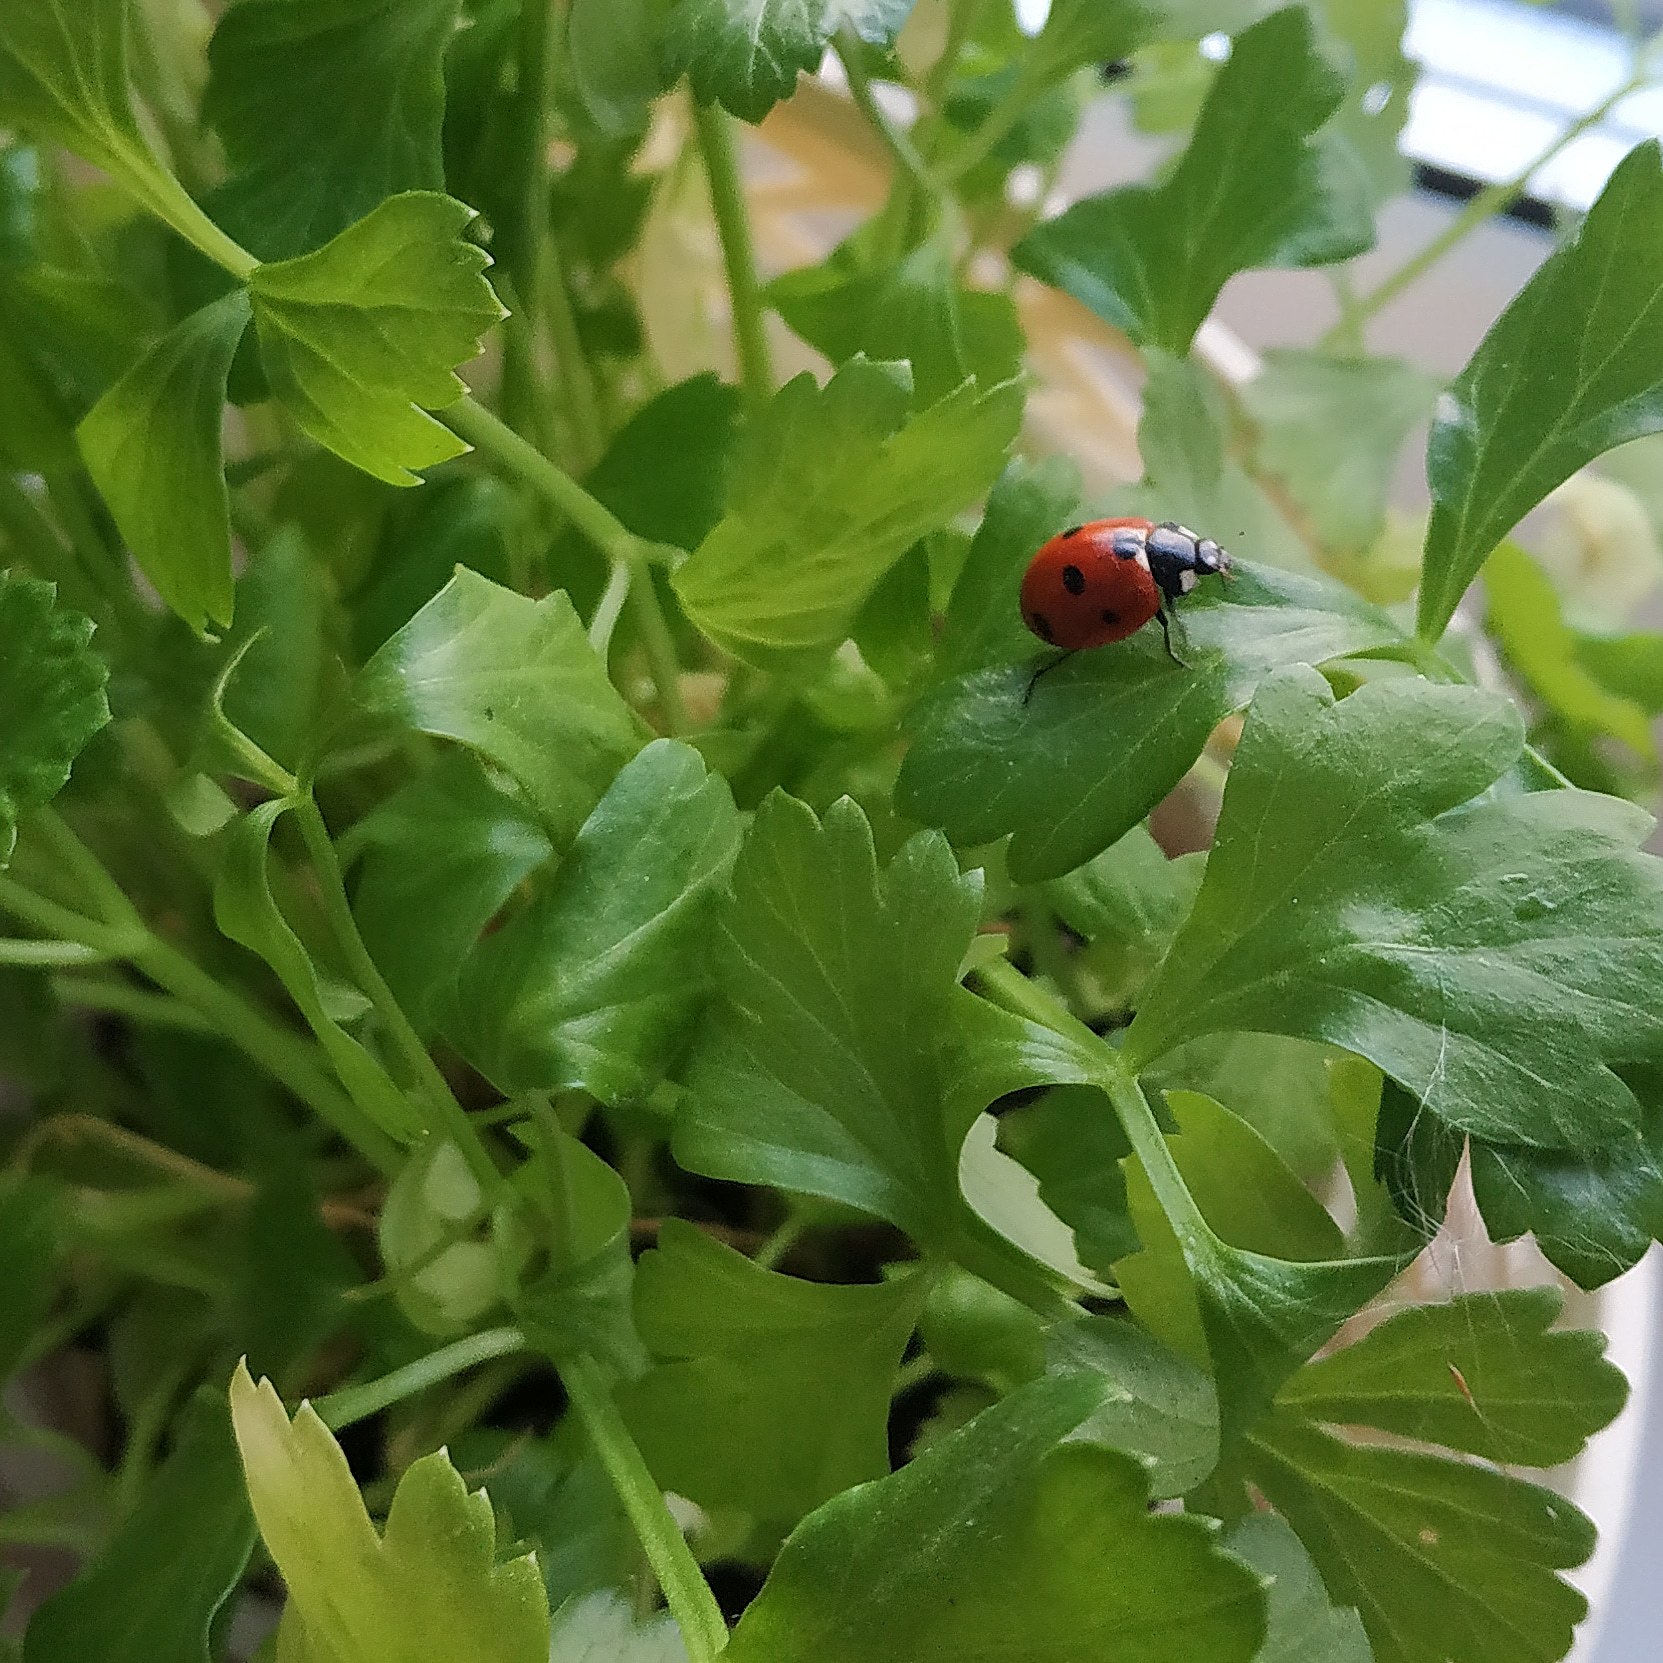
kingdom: Animalia
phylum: Arthropoda
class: Insecta
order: Coleoptera
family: Coccinellidae
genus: Coccinella
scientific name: Coccinella septempunctata
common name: Sevenspotted lady beetle
